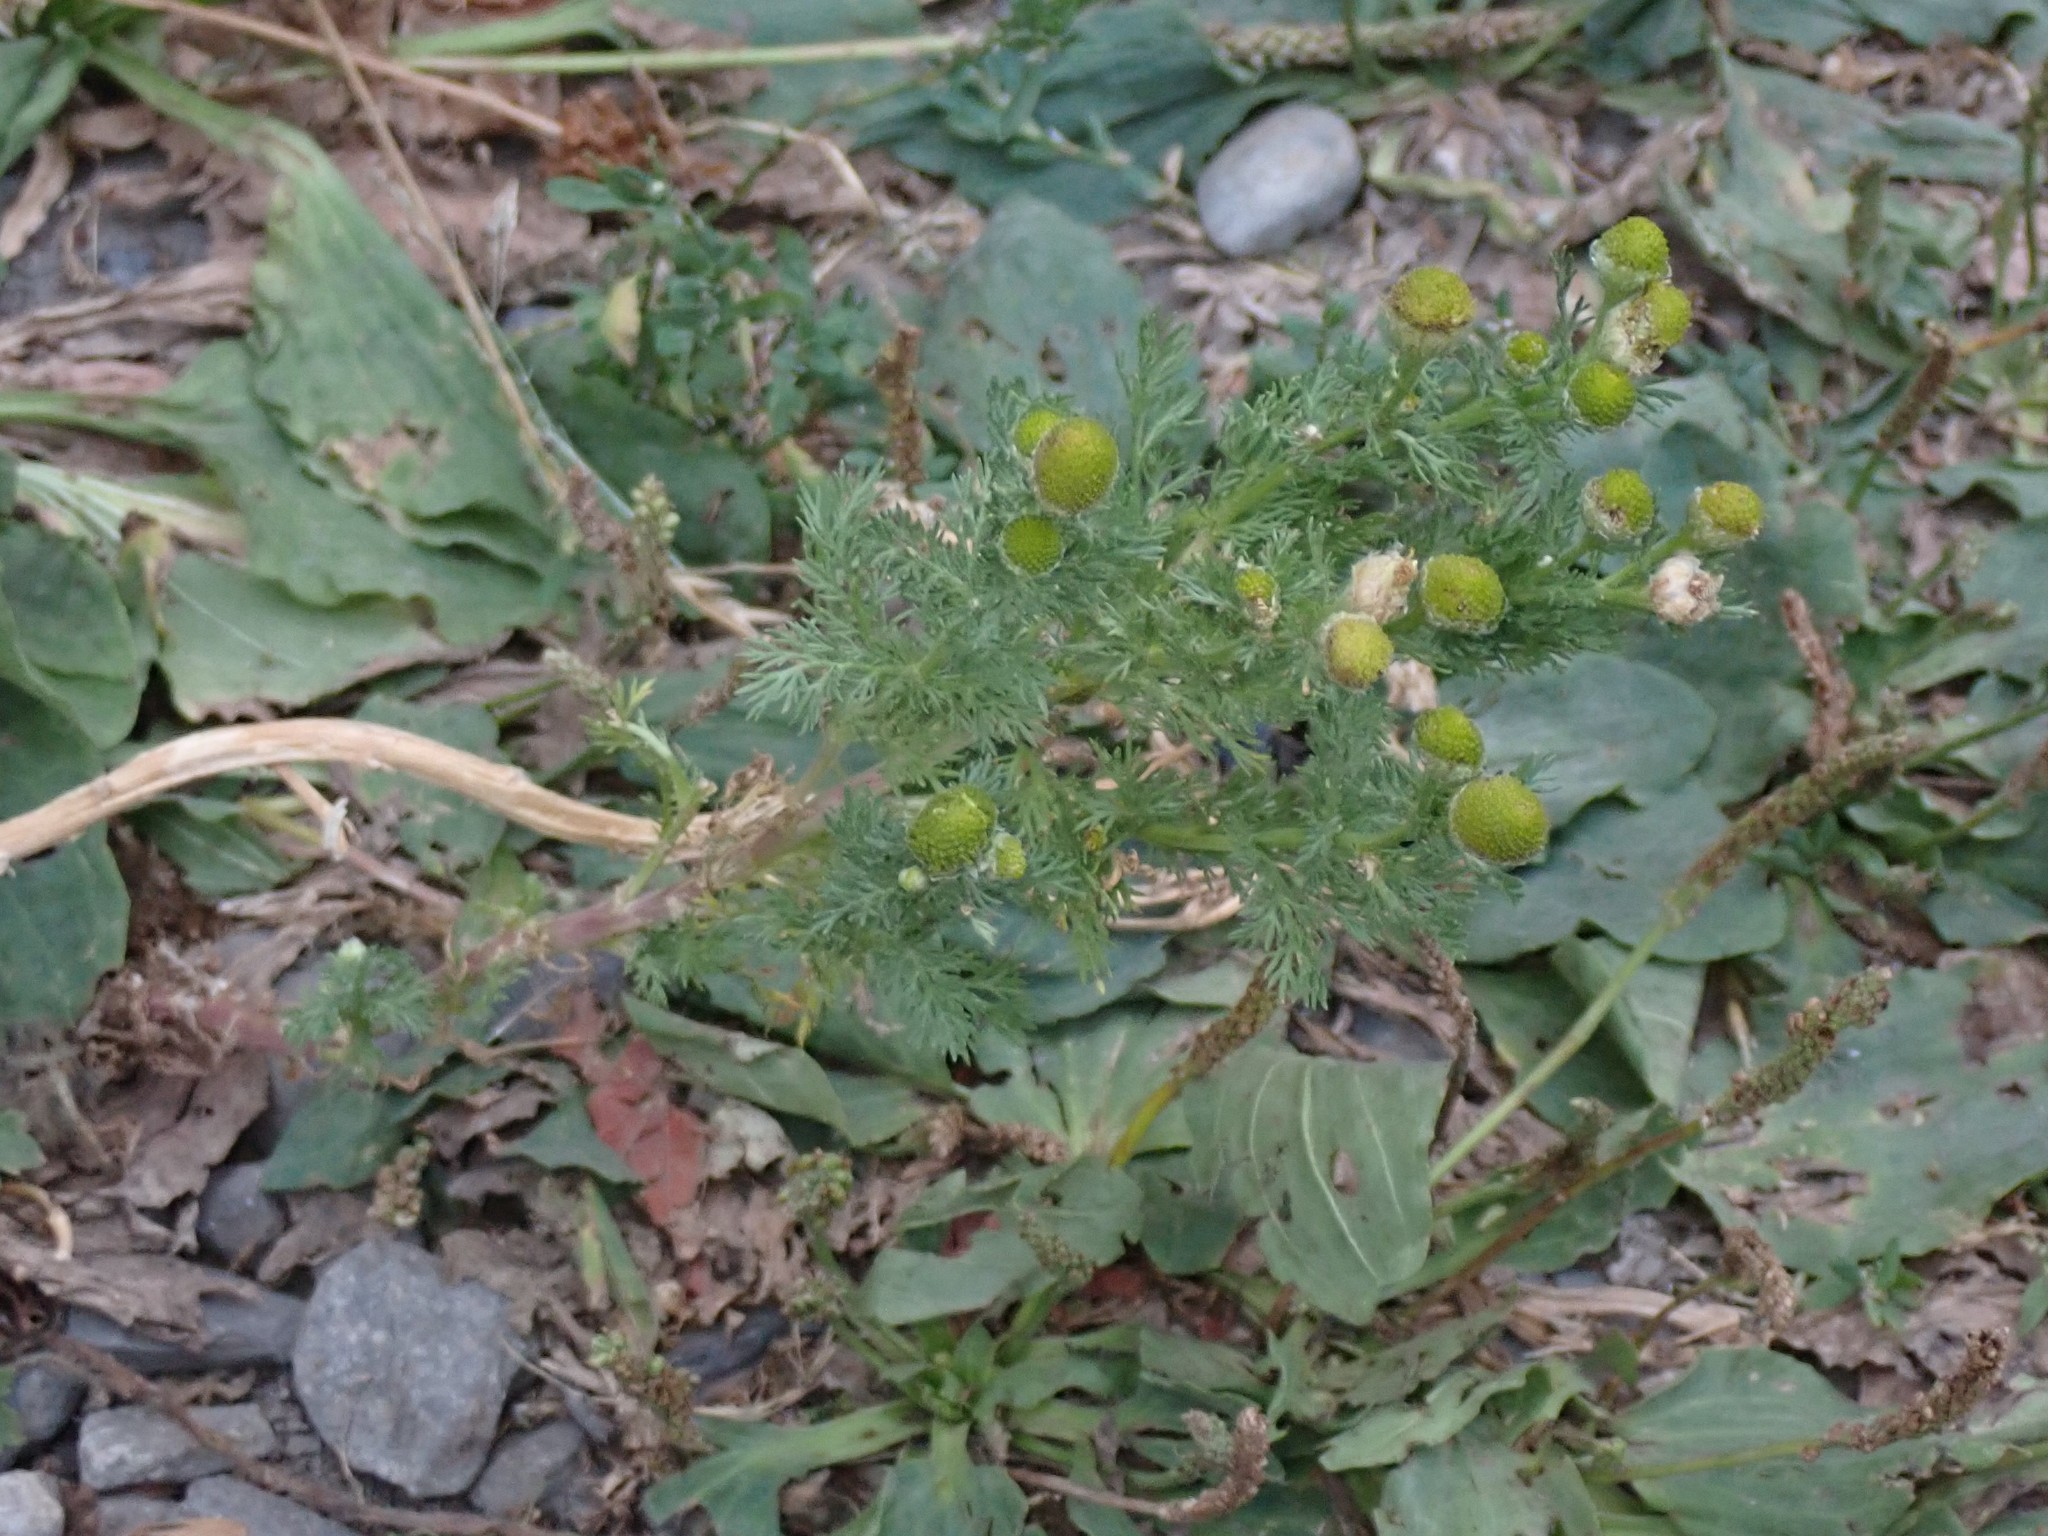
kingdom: Plantae
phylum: Tracheophyta
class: Magnoliopsida
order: Asterales
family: Asteraceae
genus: Matricaria
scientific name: Matricaria discoidea
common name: Disc mayweed
